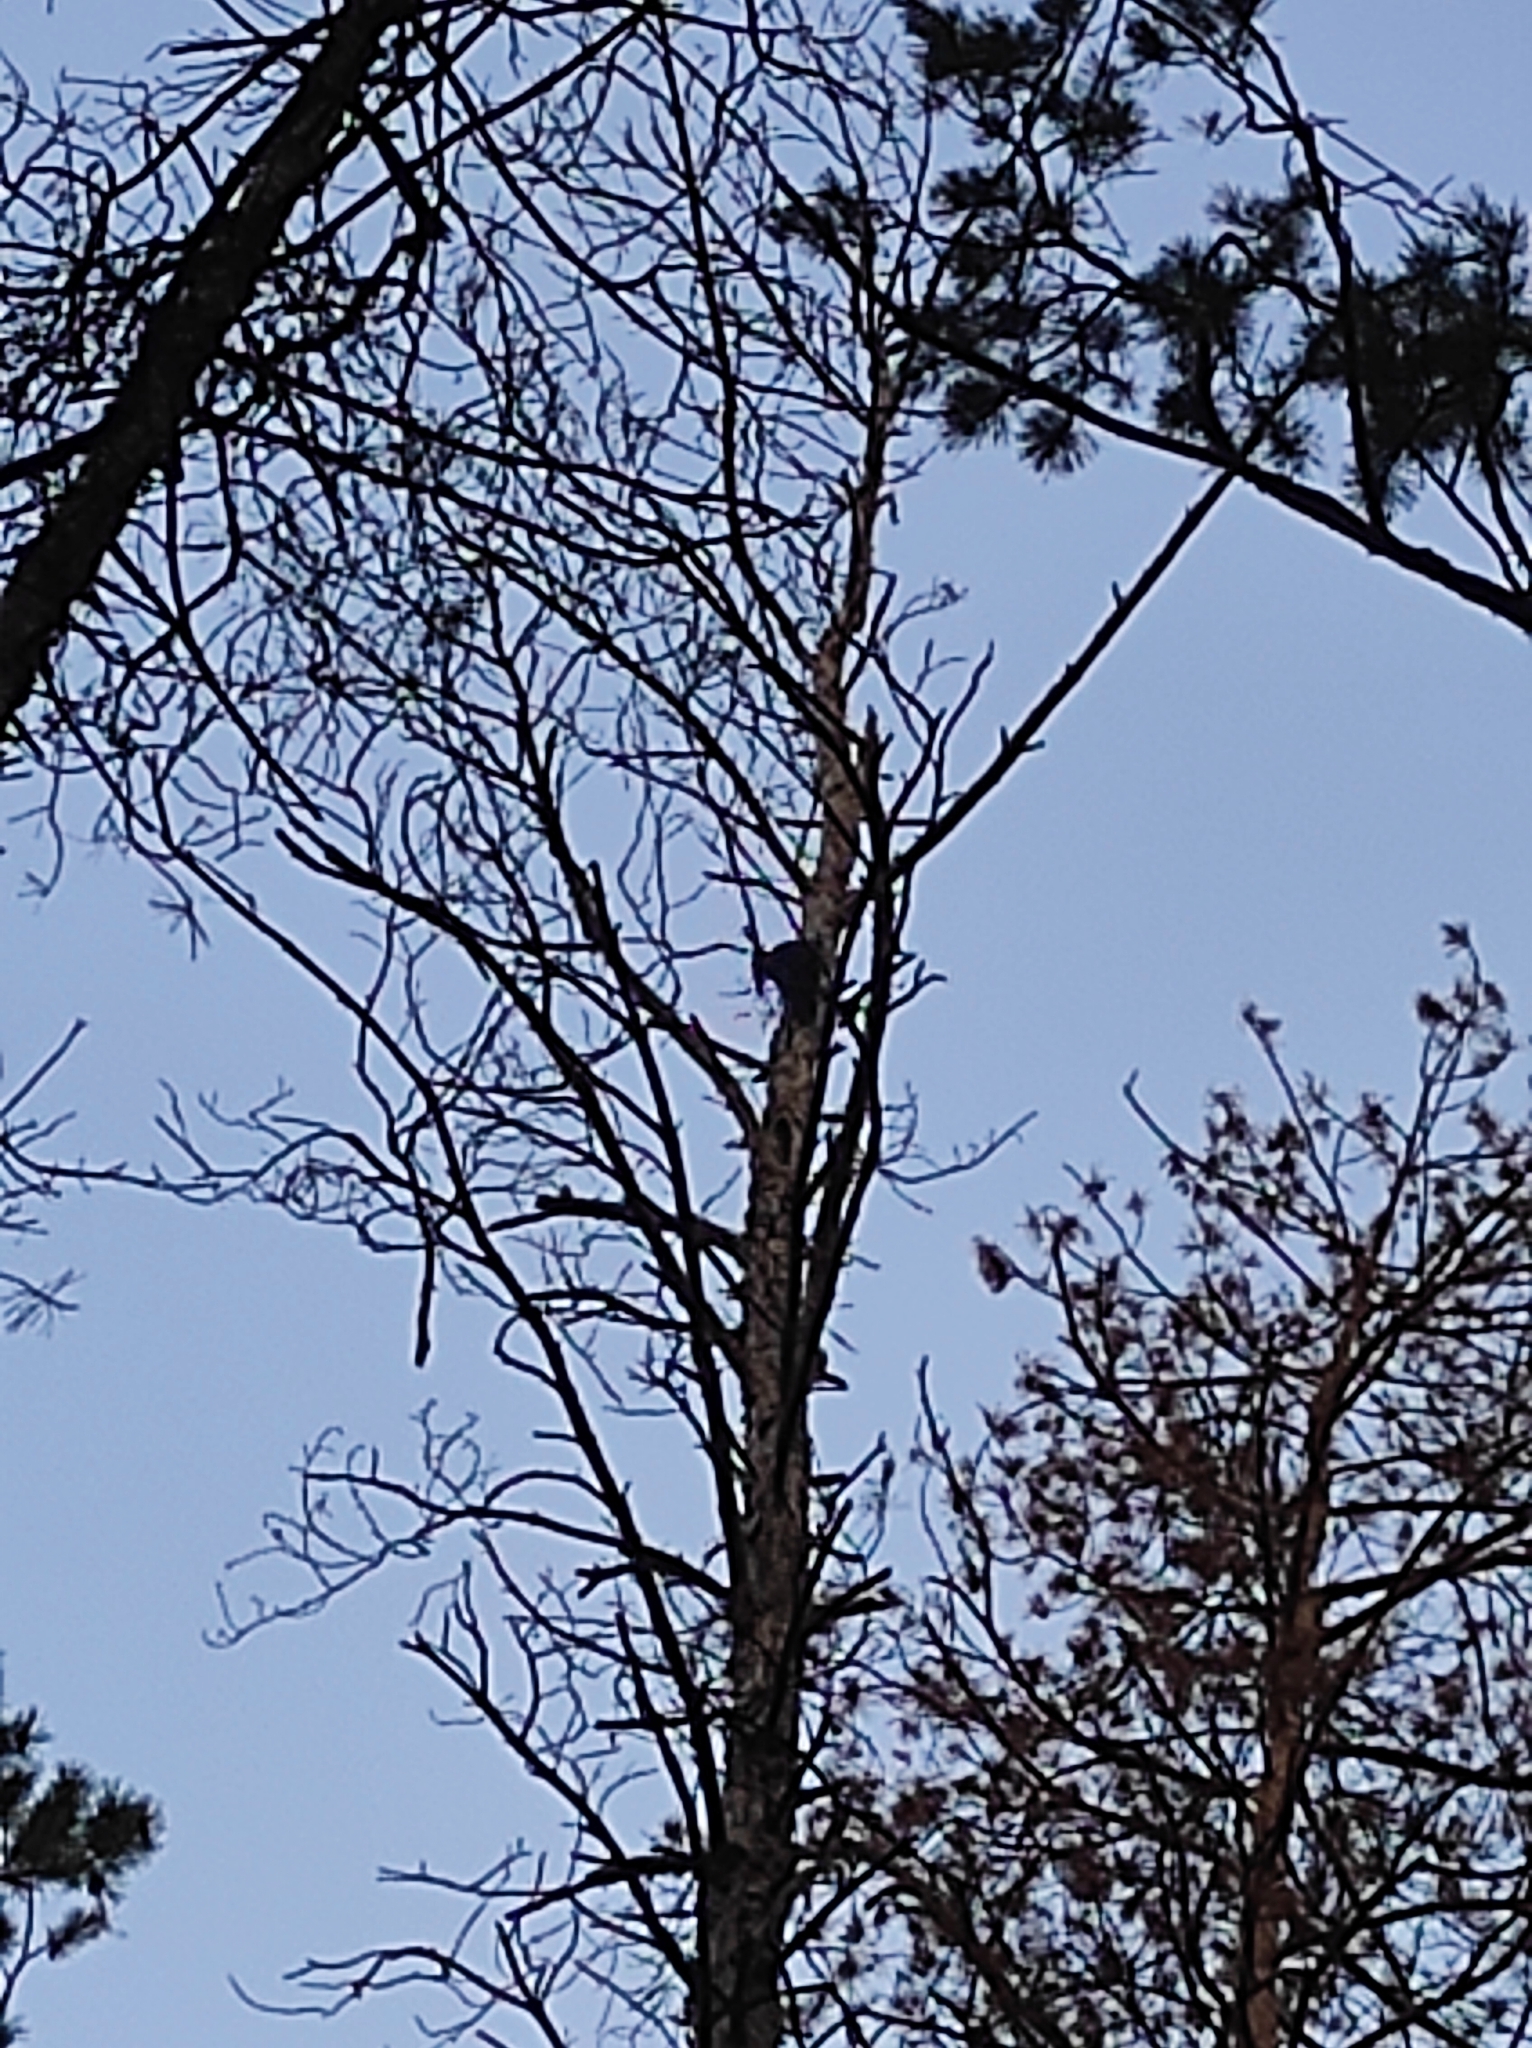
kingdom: Animalia
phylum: Chordata
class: Aves
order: Piciformes
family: Picidae
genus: Dryocopus
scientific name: Dryocopus martius
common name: Black woodpecker
